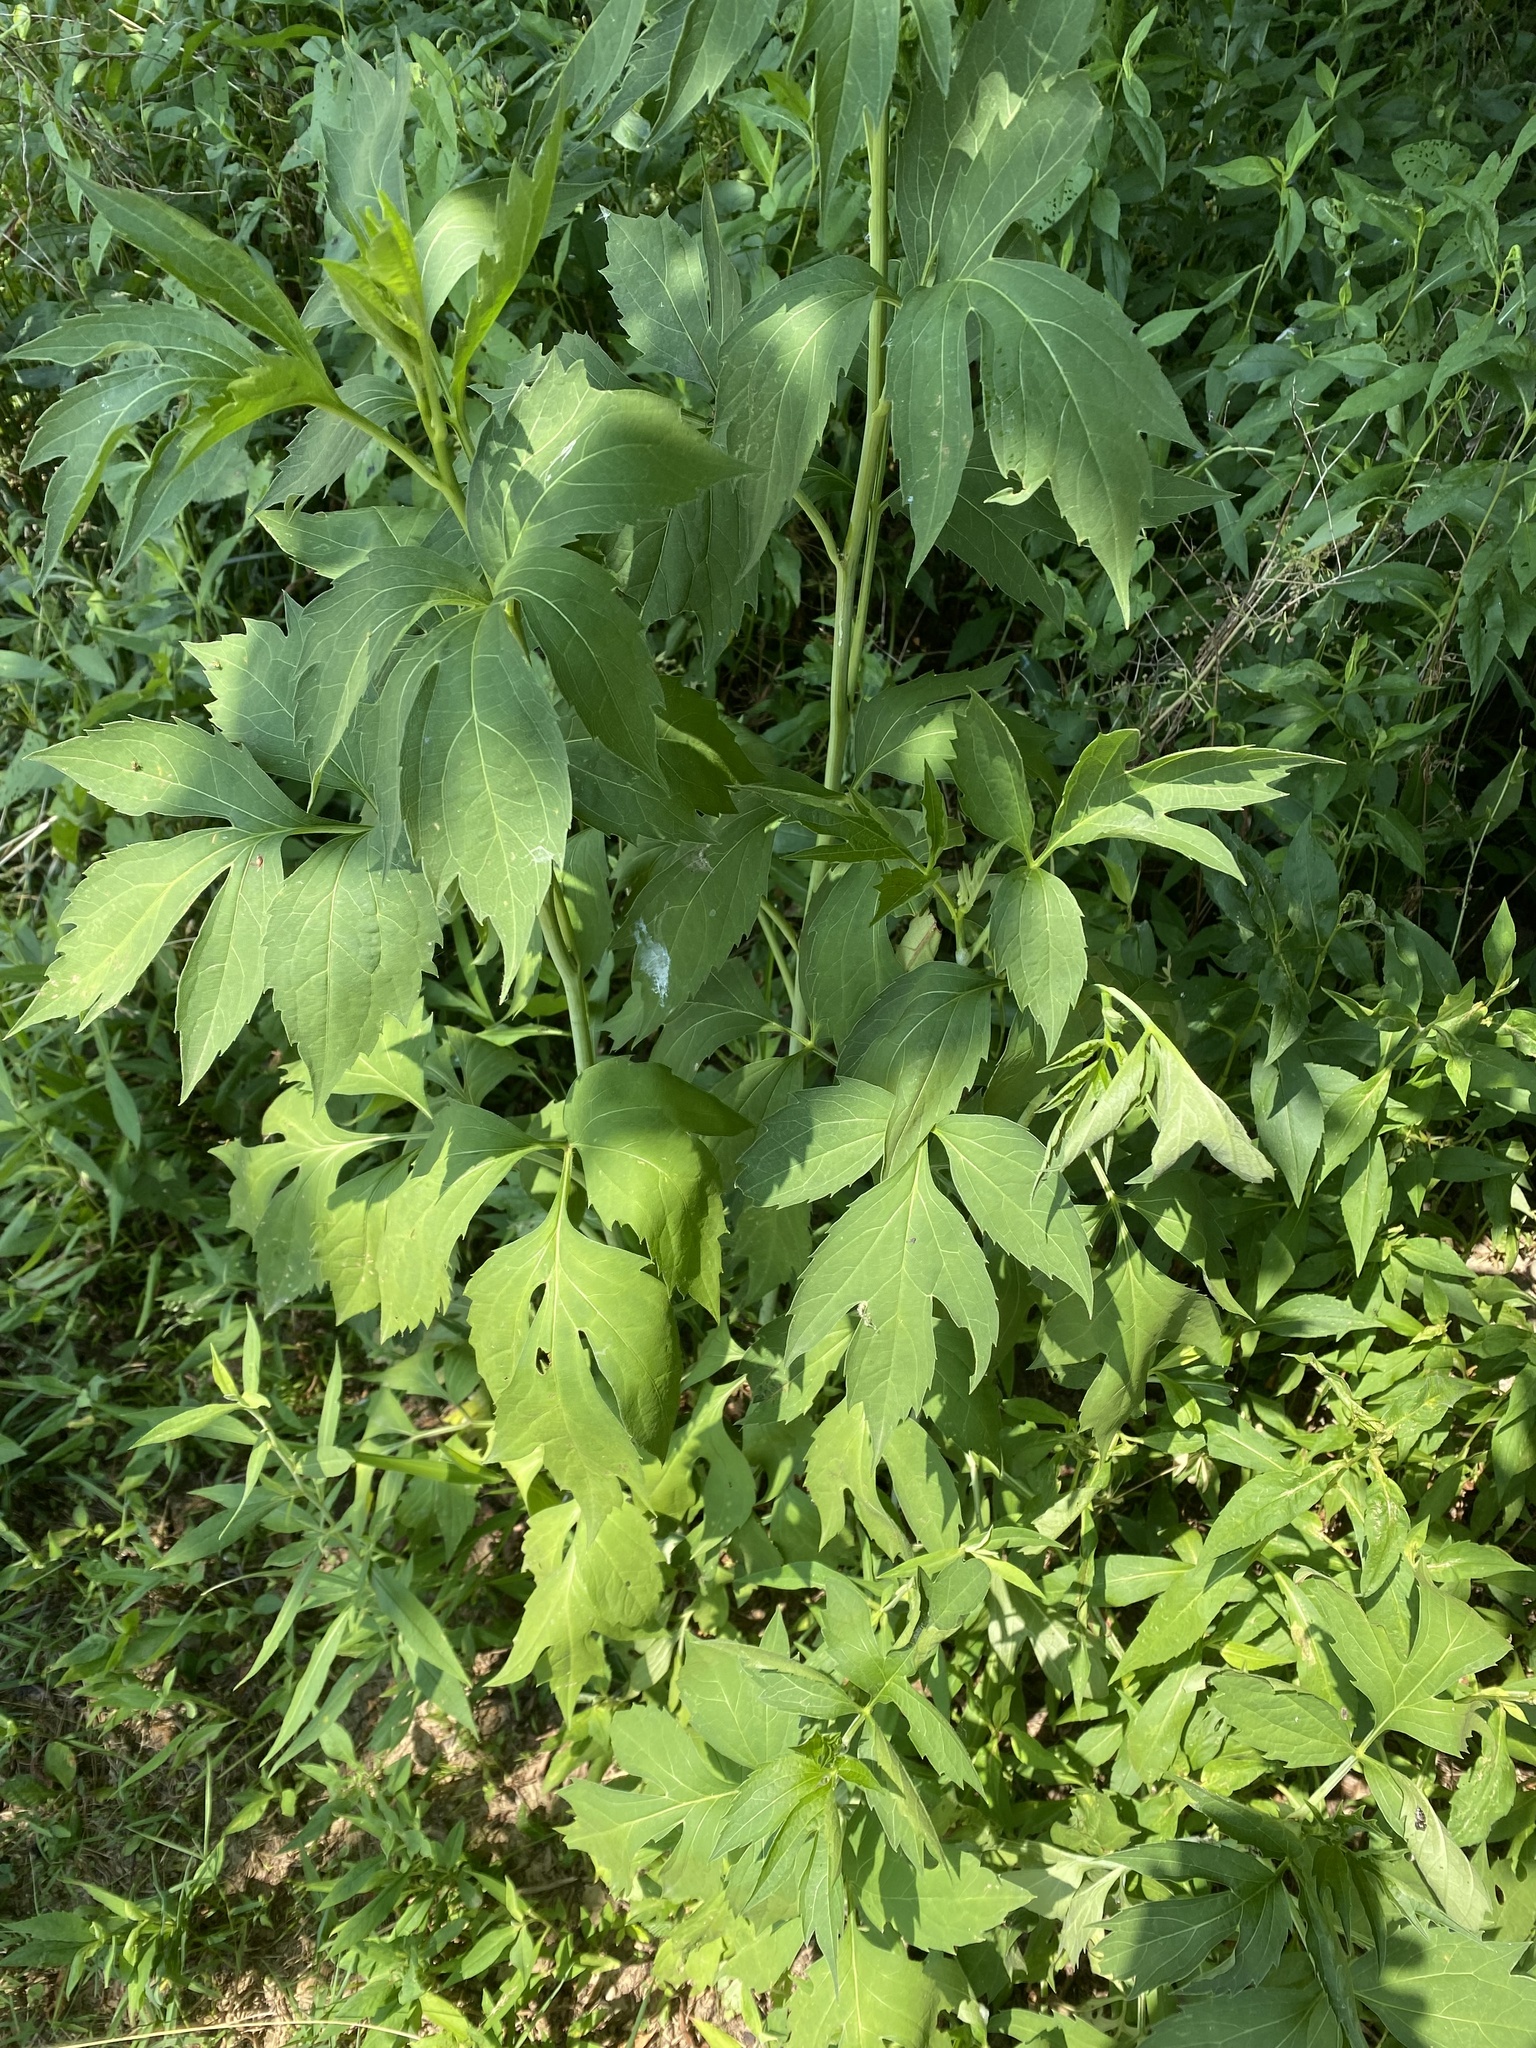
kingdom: Plantae
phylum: Tracheophyta
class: Magnoliopsida
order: Asterales
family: Asteraceae
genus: Rudbeckia
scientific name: Rudbeckia laciniata
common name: Coneflower
